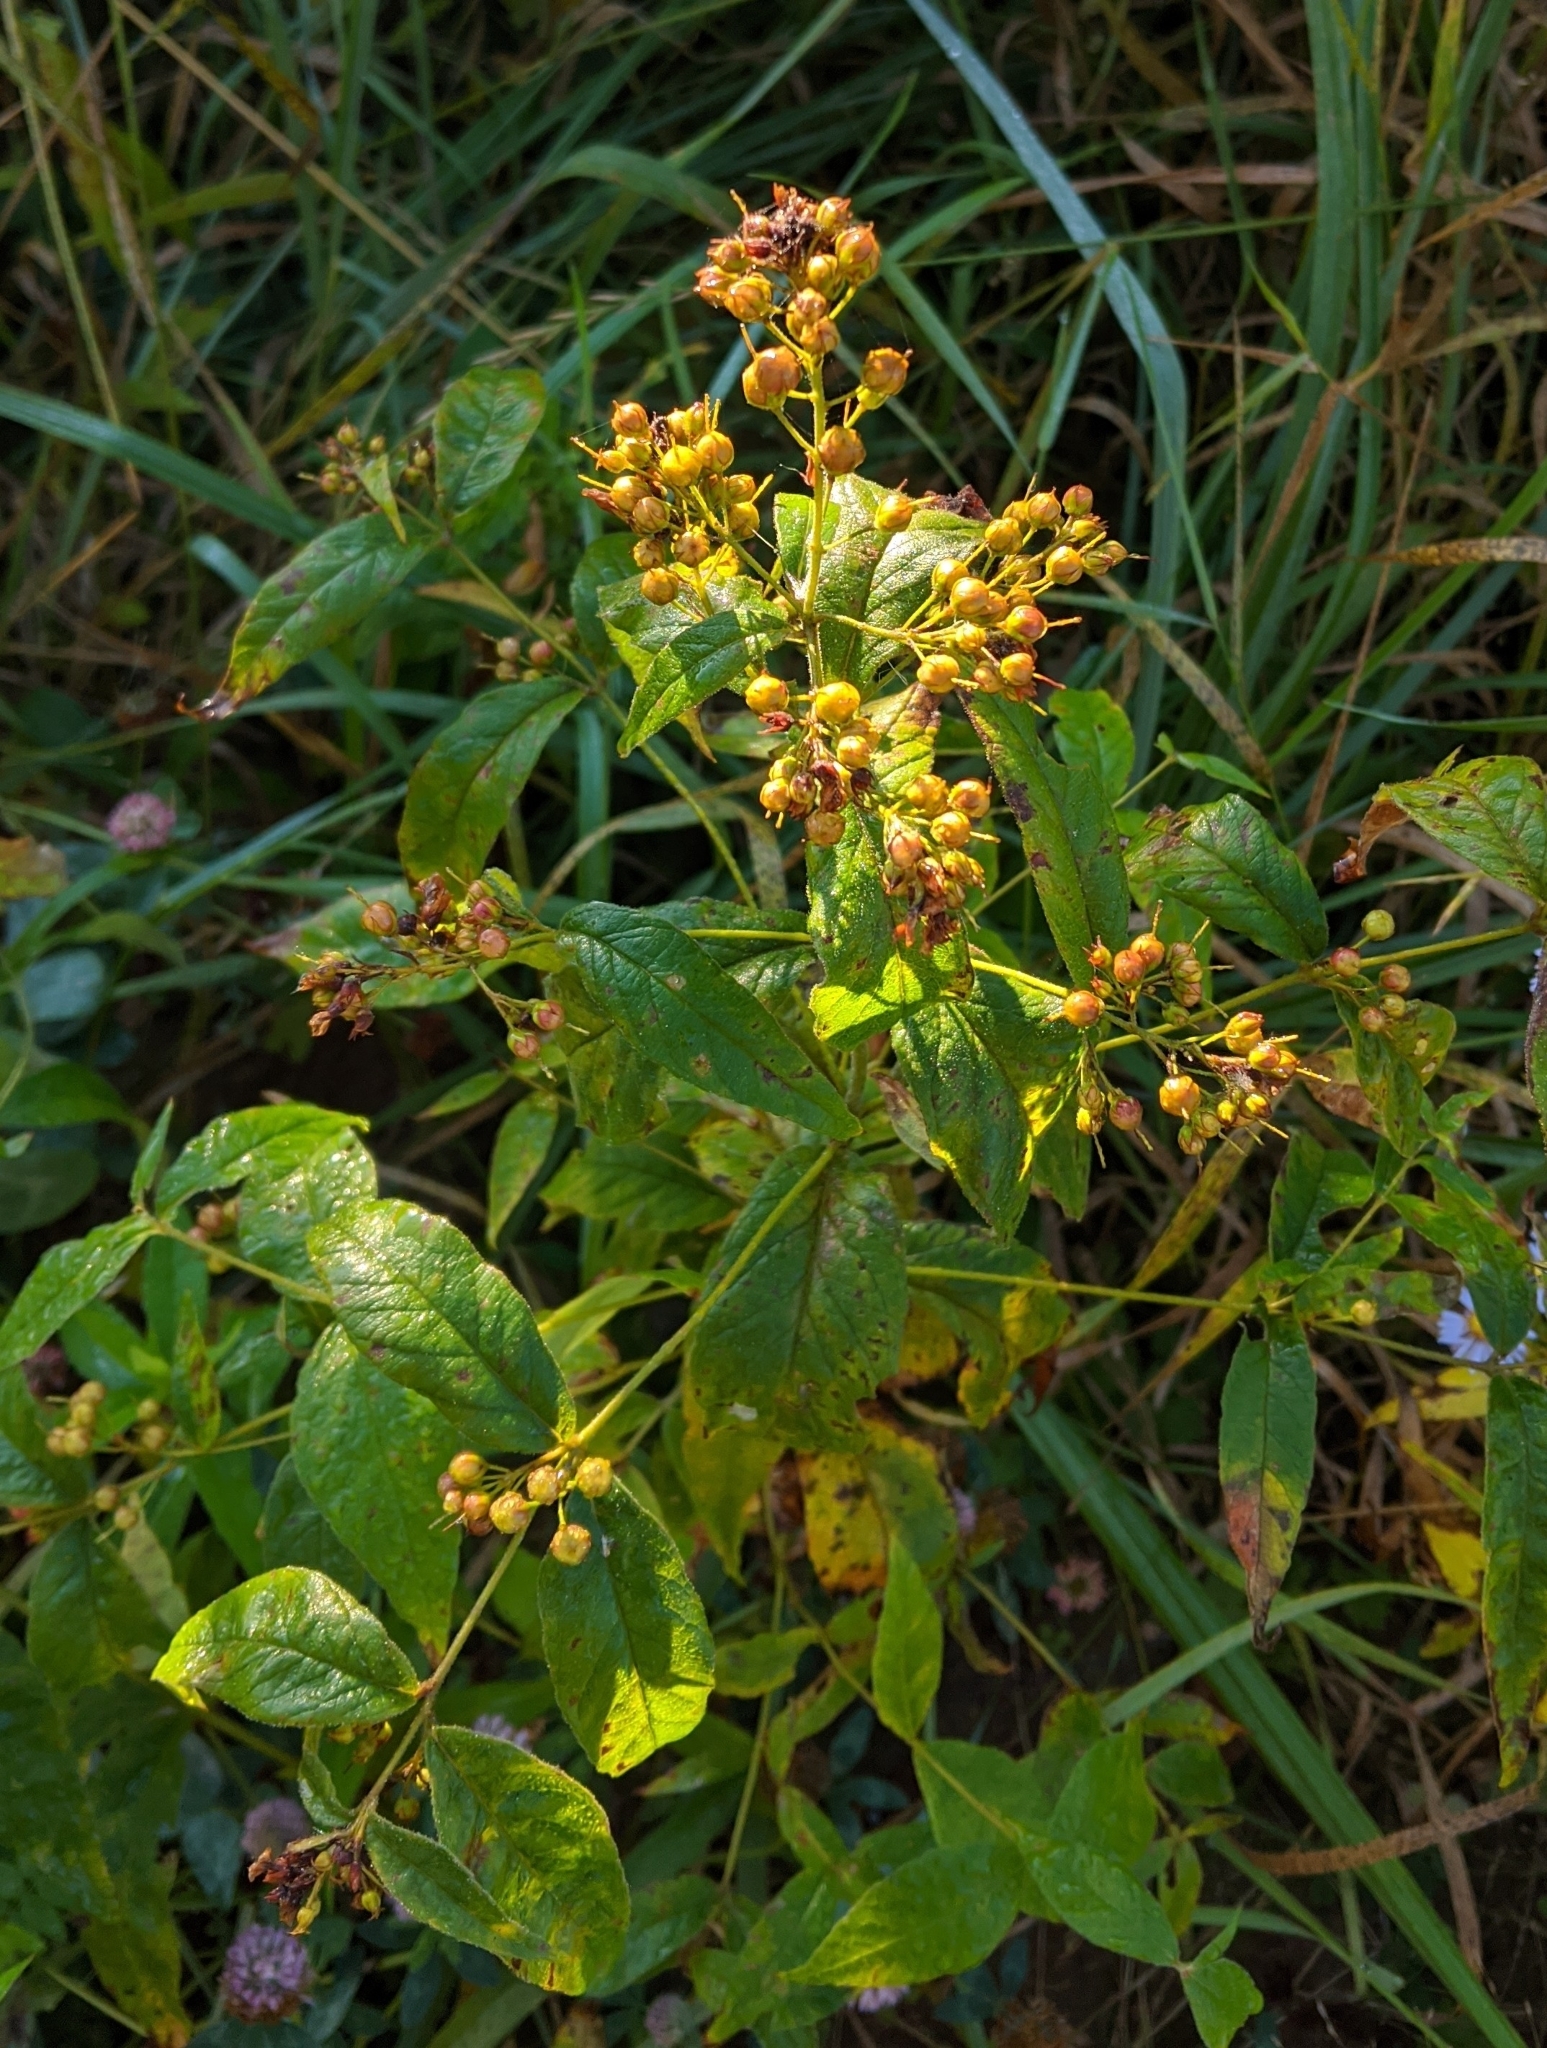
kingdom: Plantae
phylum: Tracheophyta
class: Magnoliopsida
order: Ericales
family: Primulaceae
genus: Lysimachia
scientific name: Lysimachia vulgaris
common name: Yellow loosestrife
